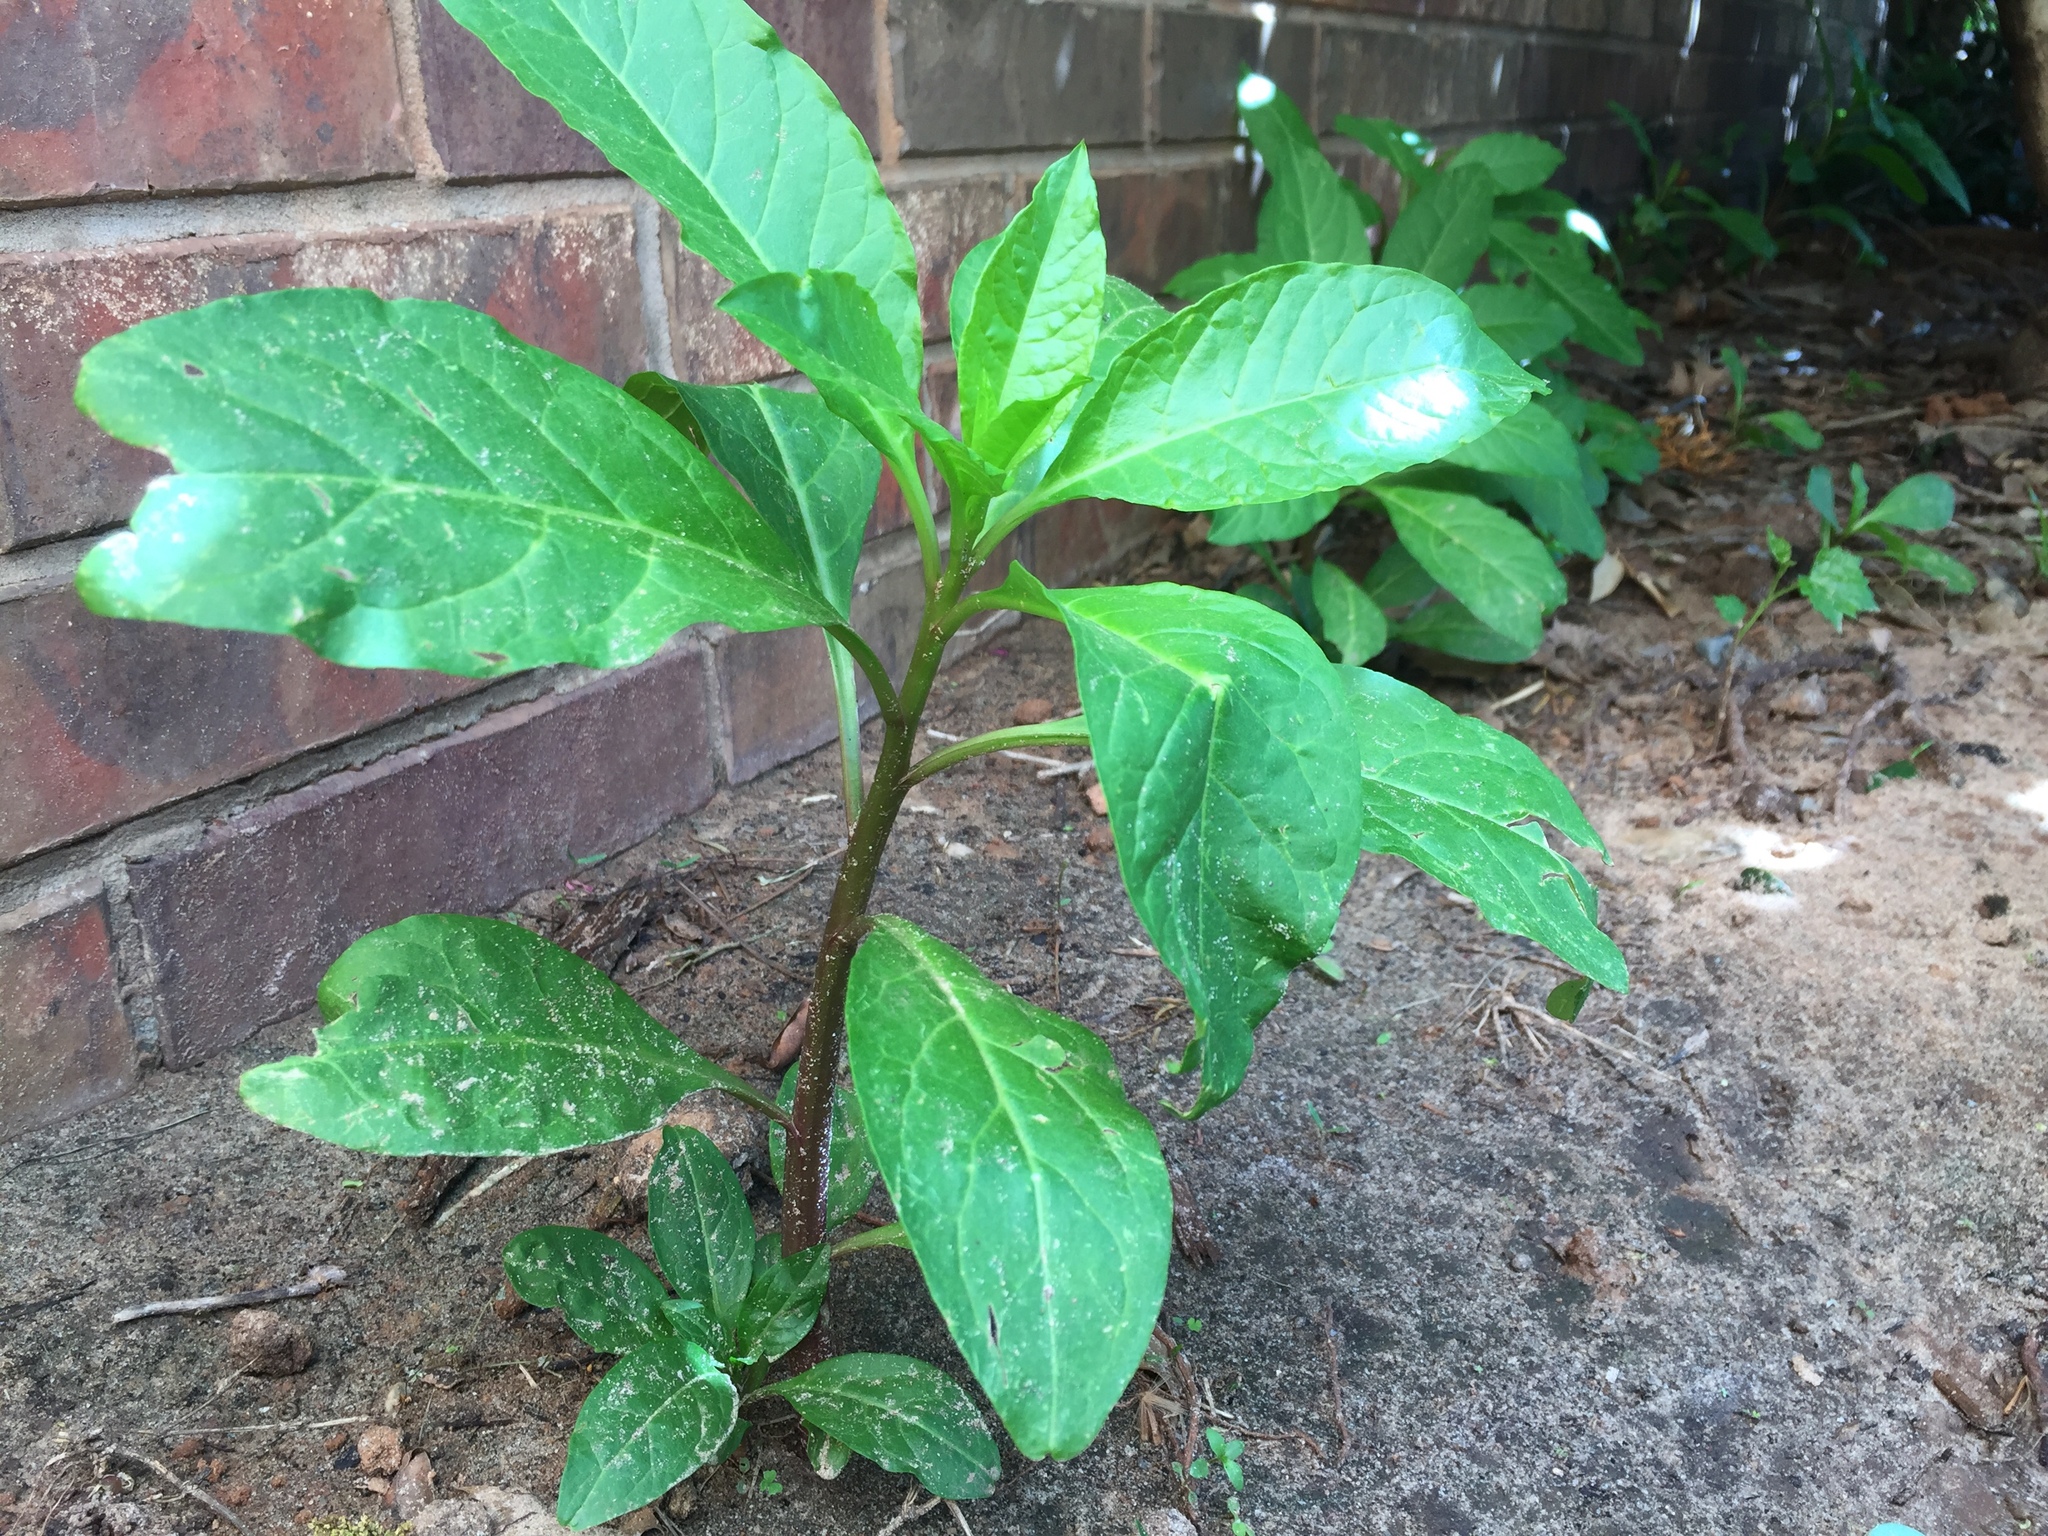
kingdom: Plantae
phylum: Tracheophyta
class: Magnoliopsida
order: Caryophyllales
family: Phytolaccaceae
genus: Phytolacca
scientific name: Phytolacca americana
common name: American pokeweed
